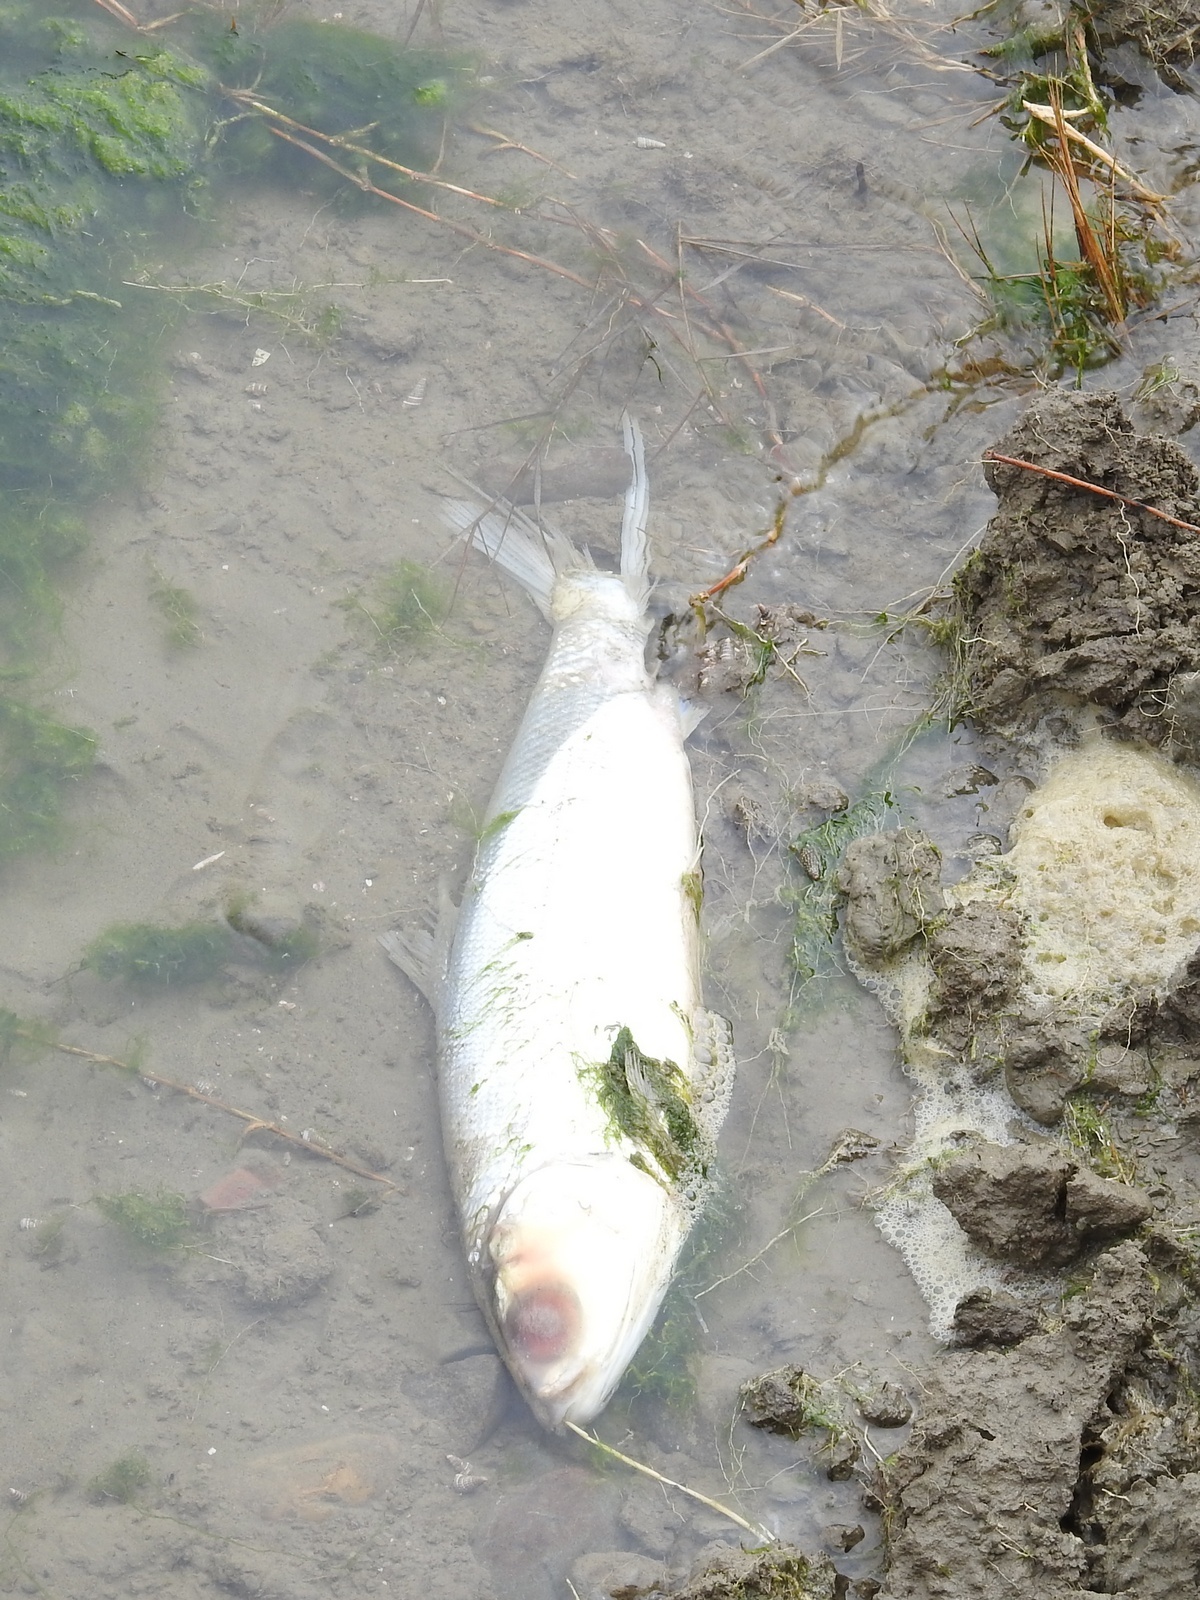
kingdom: Animalia
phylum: Chordata
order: Gonorynchiformes
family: Chanidae
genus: Chanos
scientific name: Chanos chanos
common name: Milkfish
